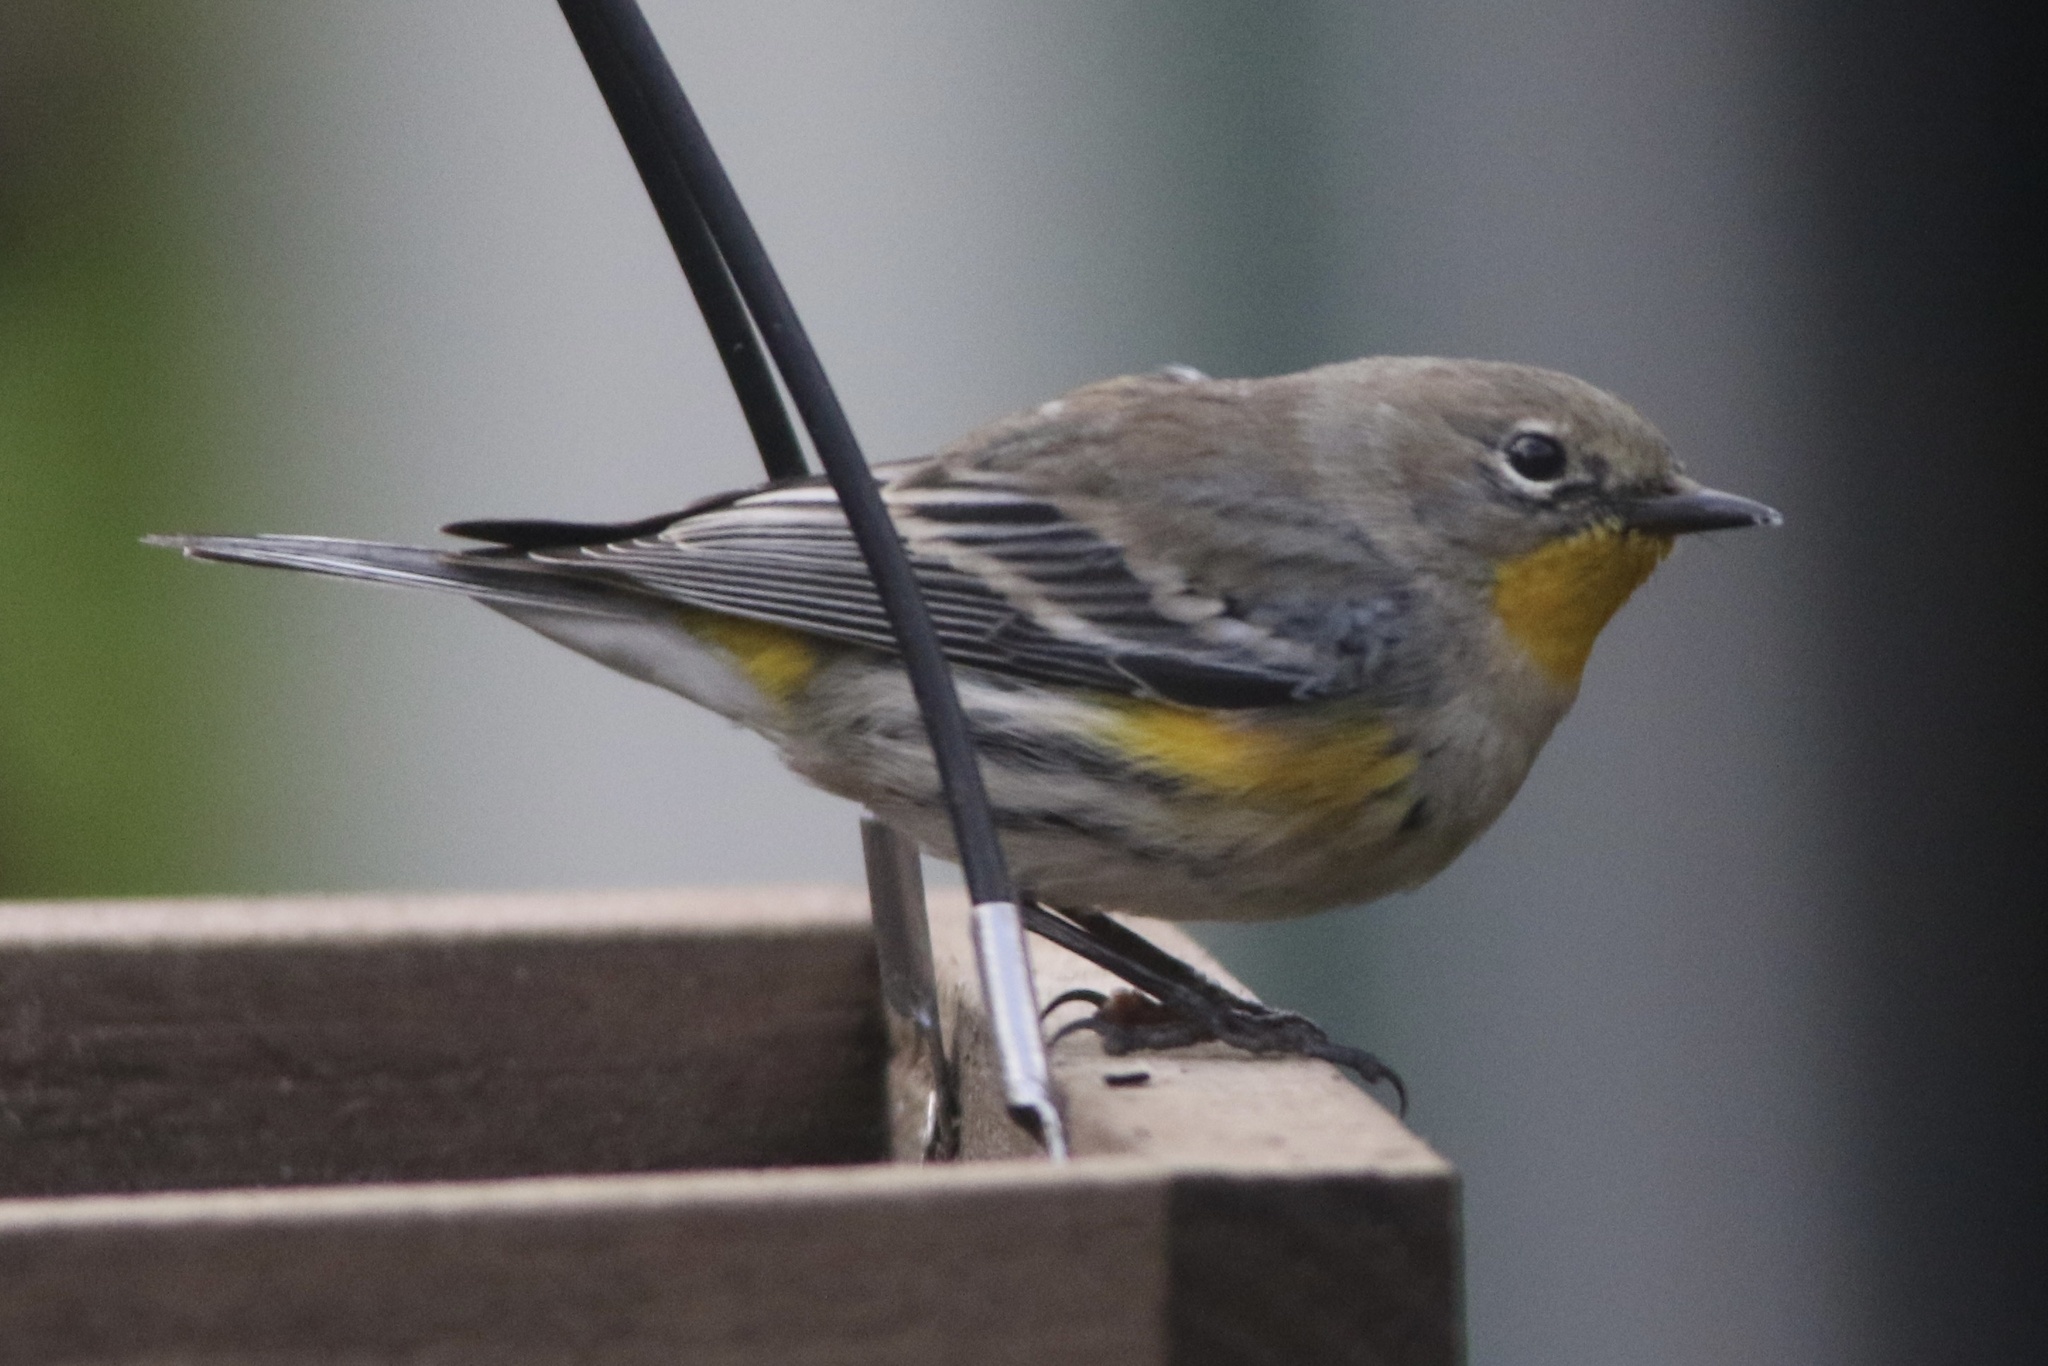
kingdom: Animalia
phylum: Chordata
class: Aves
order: Passeriformes
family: Parulidae
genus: Setophaga
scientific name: Setophaga coronata
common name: Myrtle warbler
